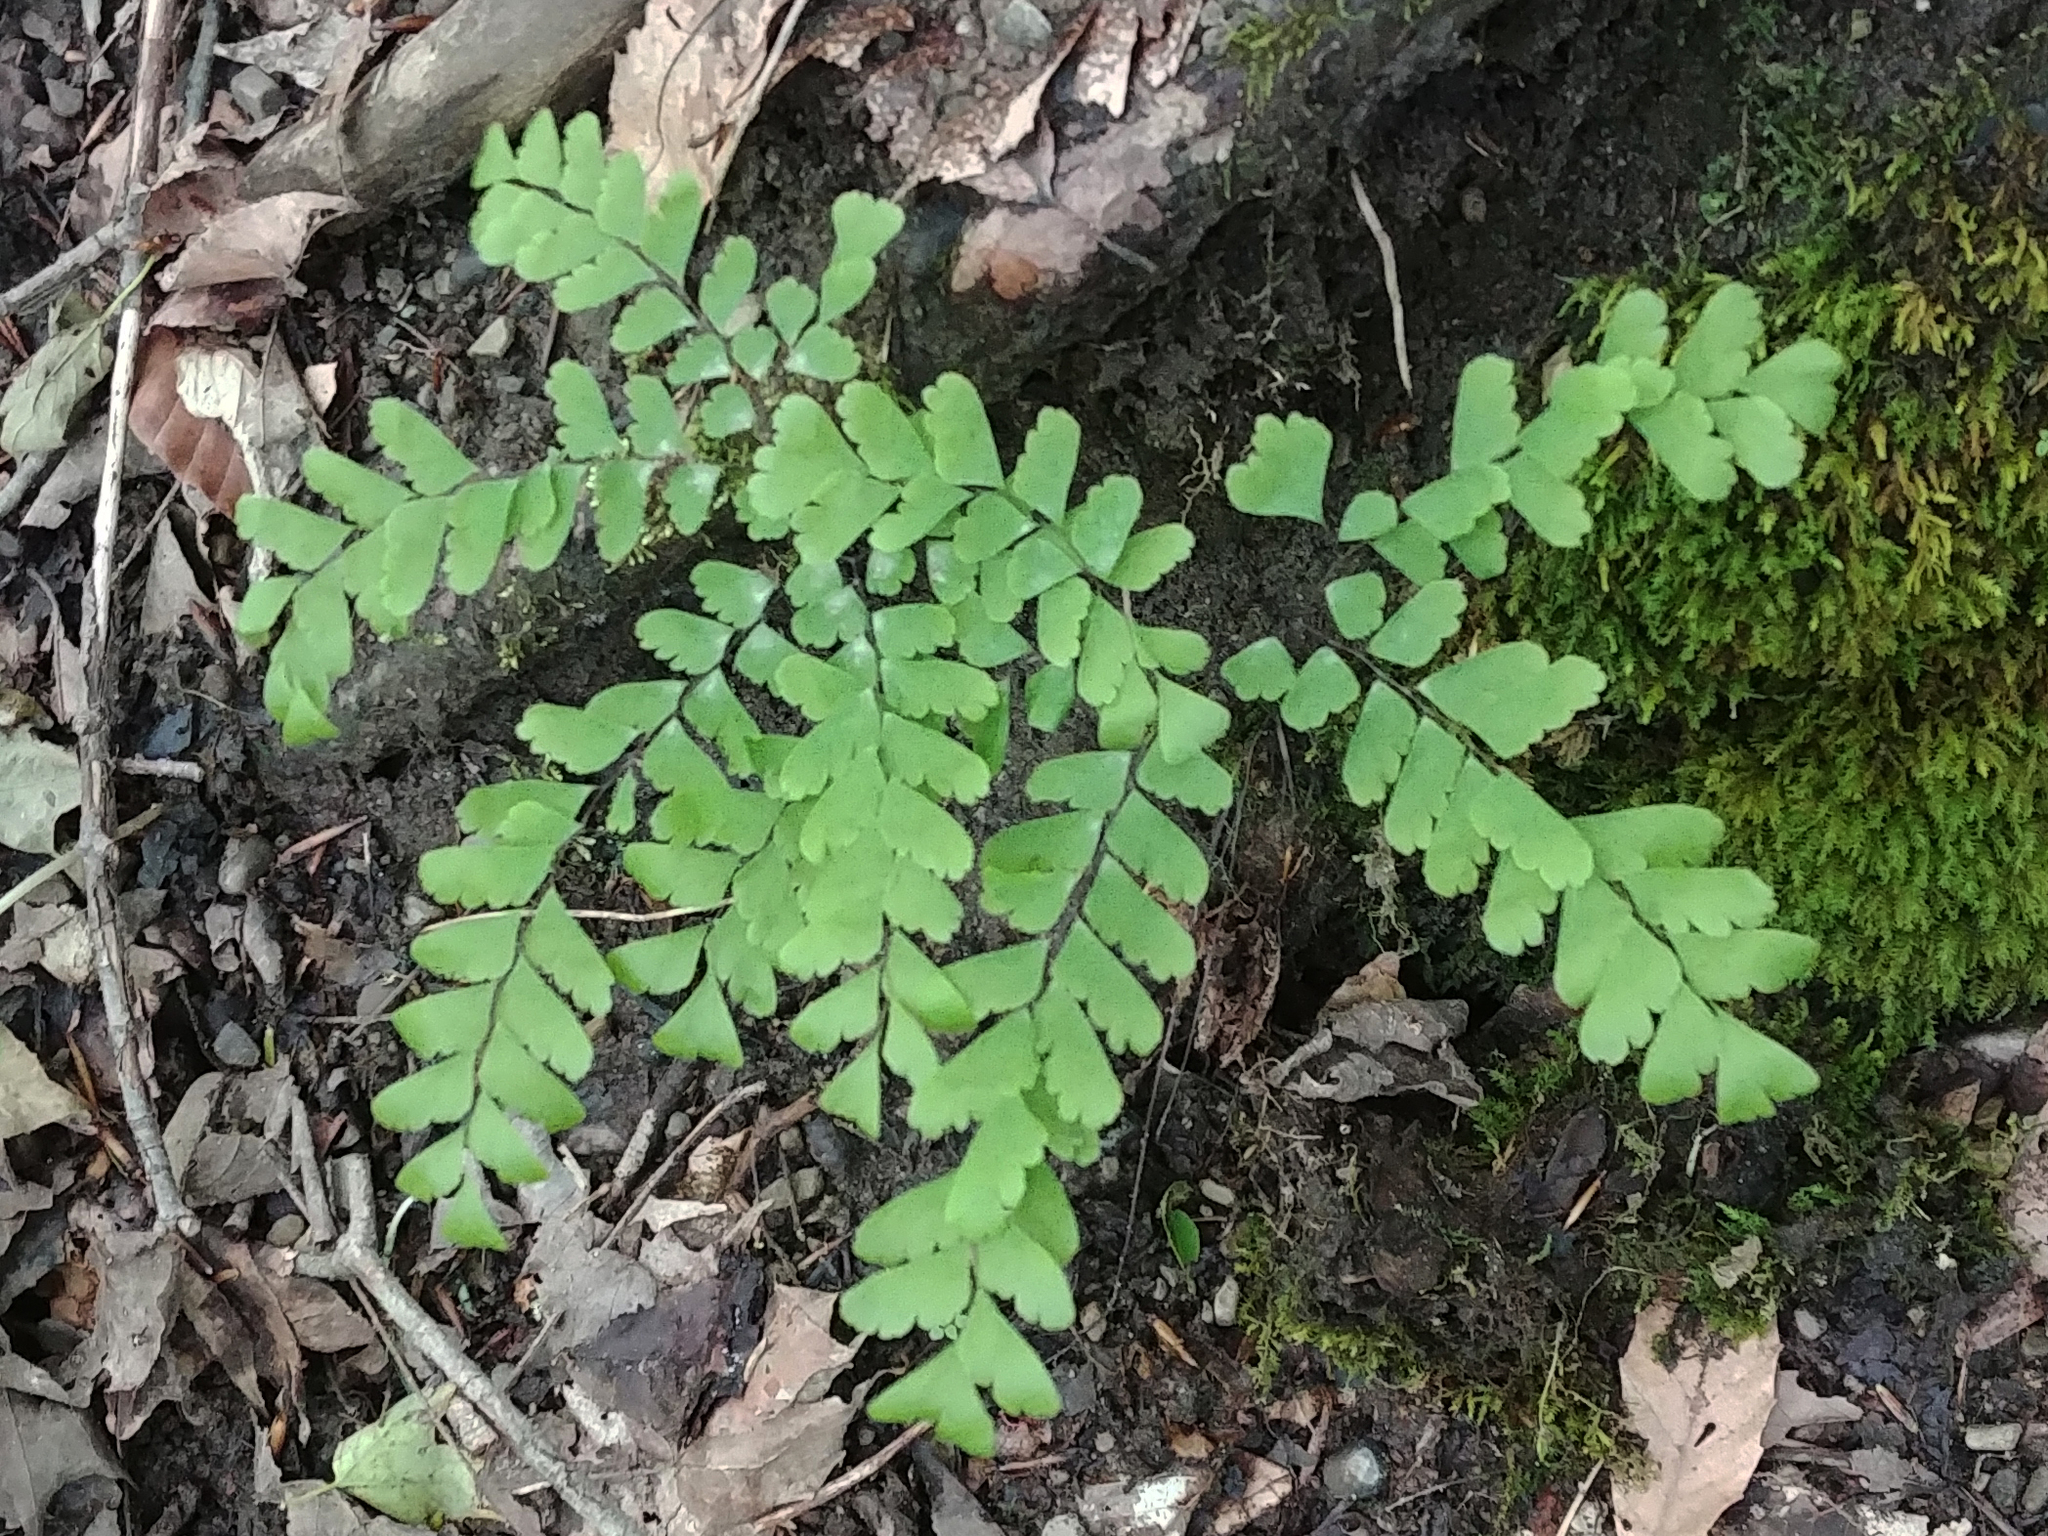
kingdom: Plantae
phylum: Tracheophyta
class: Polypodiopsida
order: Polypodiales
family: Pteridaceae
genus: Adiantum
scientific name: Adiantum pedatum
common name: Five-finger fern
